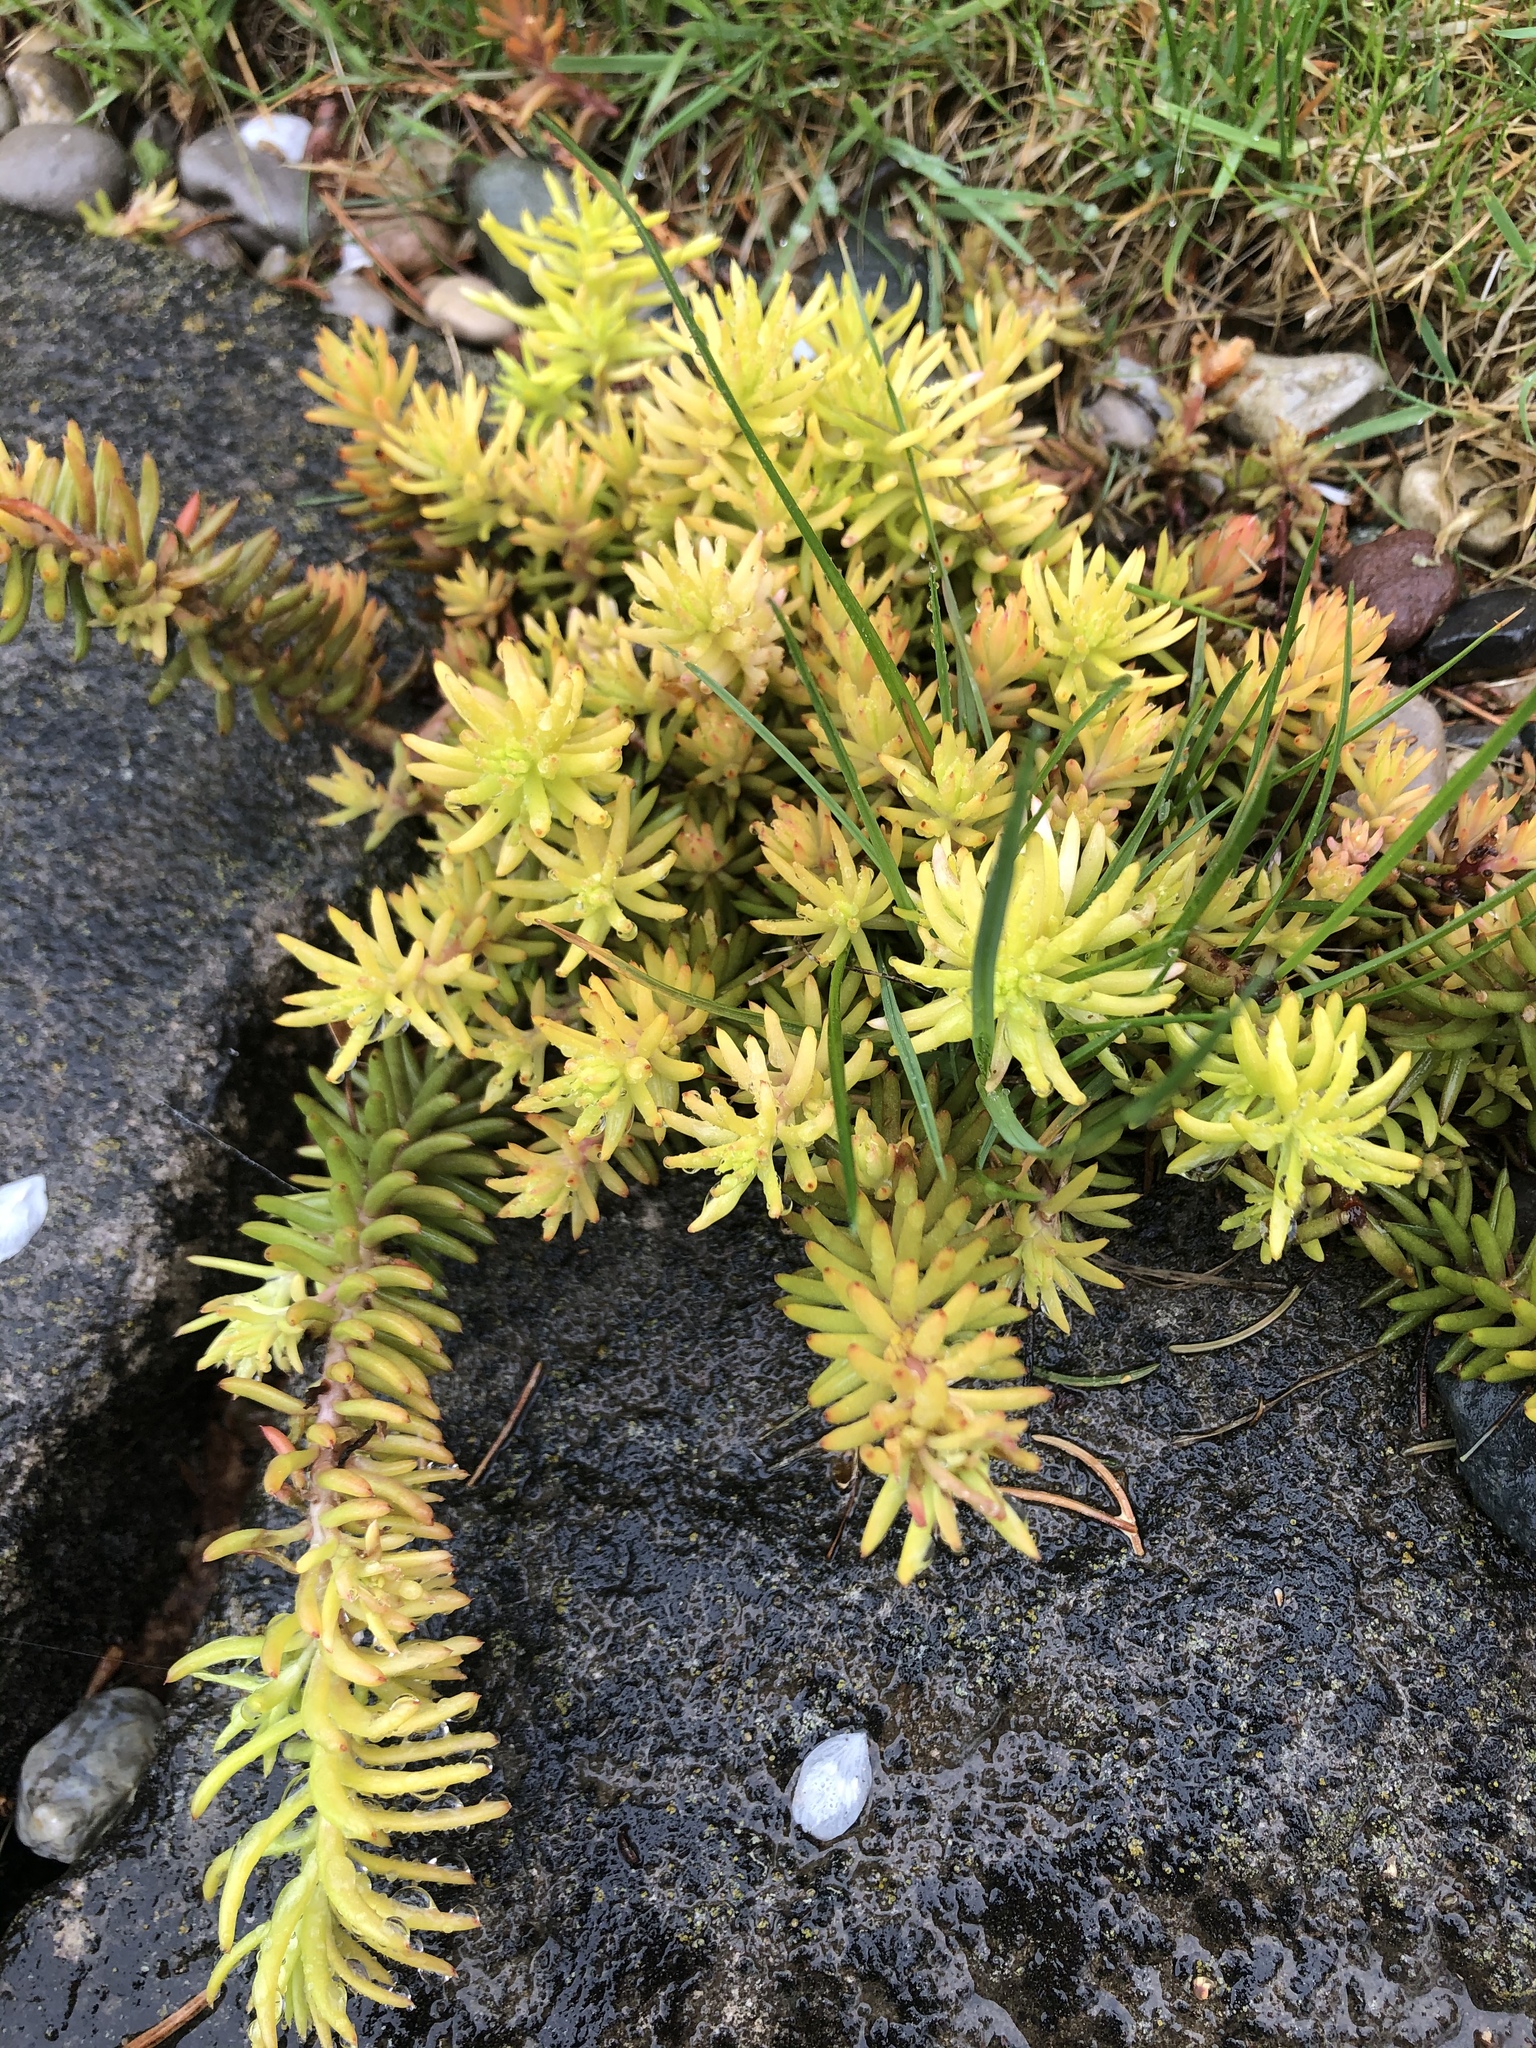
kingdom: Plantae
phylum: Tracheophyta
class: Magnoliopsida
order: Saxifragales
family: Crassulaceae
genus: Petrosedum
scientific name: Petrosedum rupestre
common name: Jenny's stonecrop
